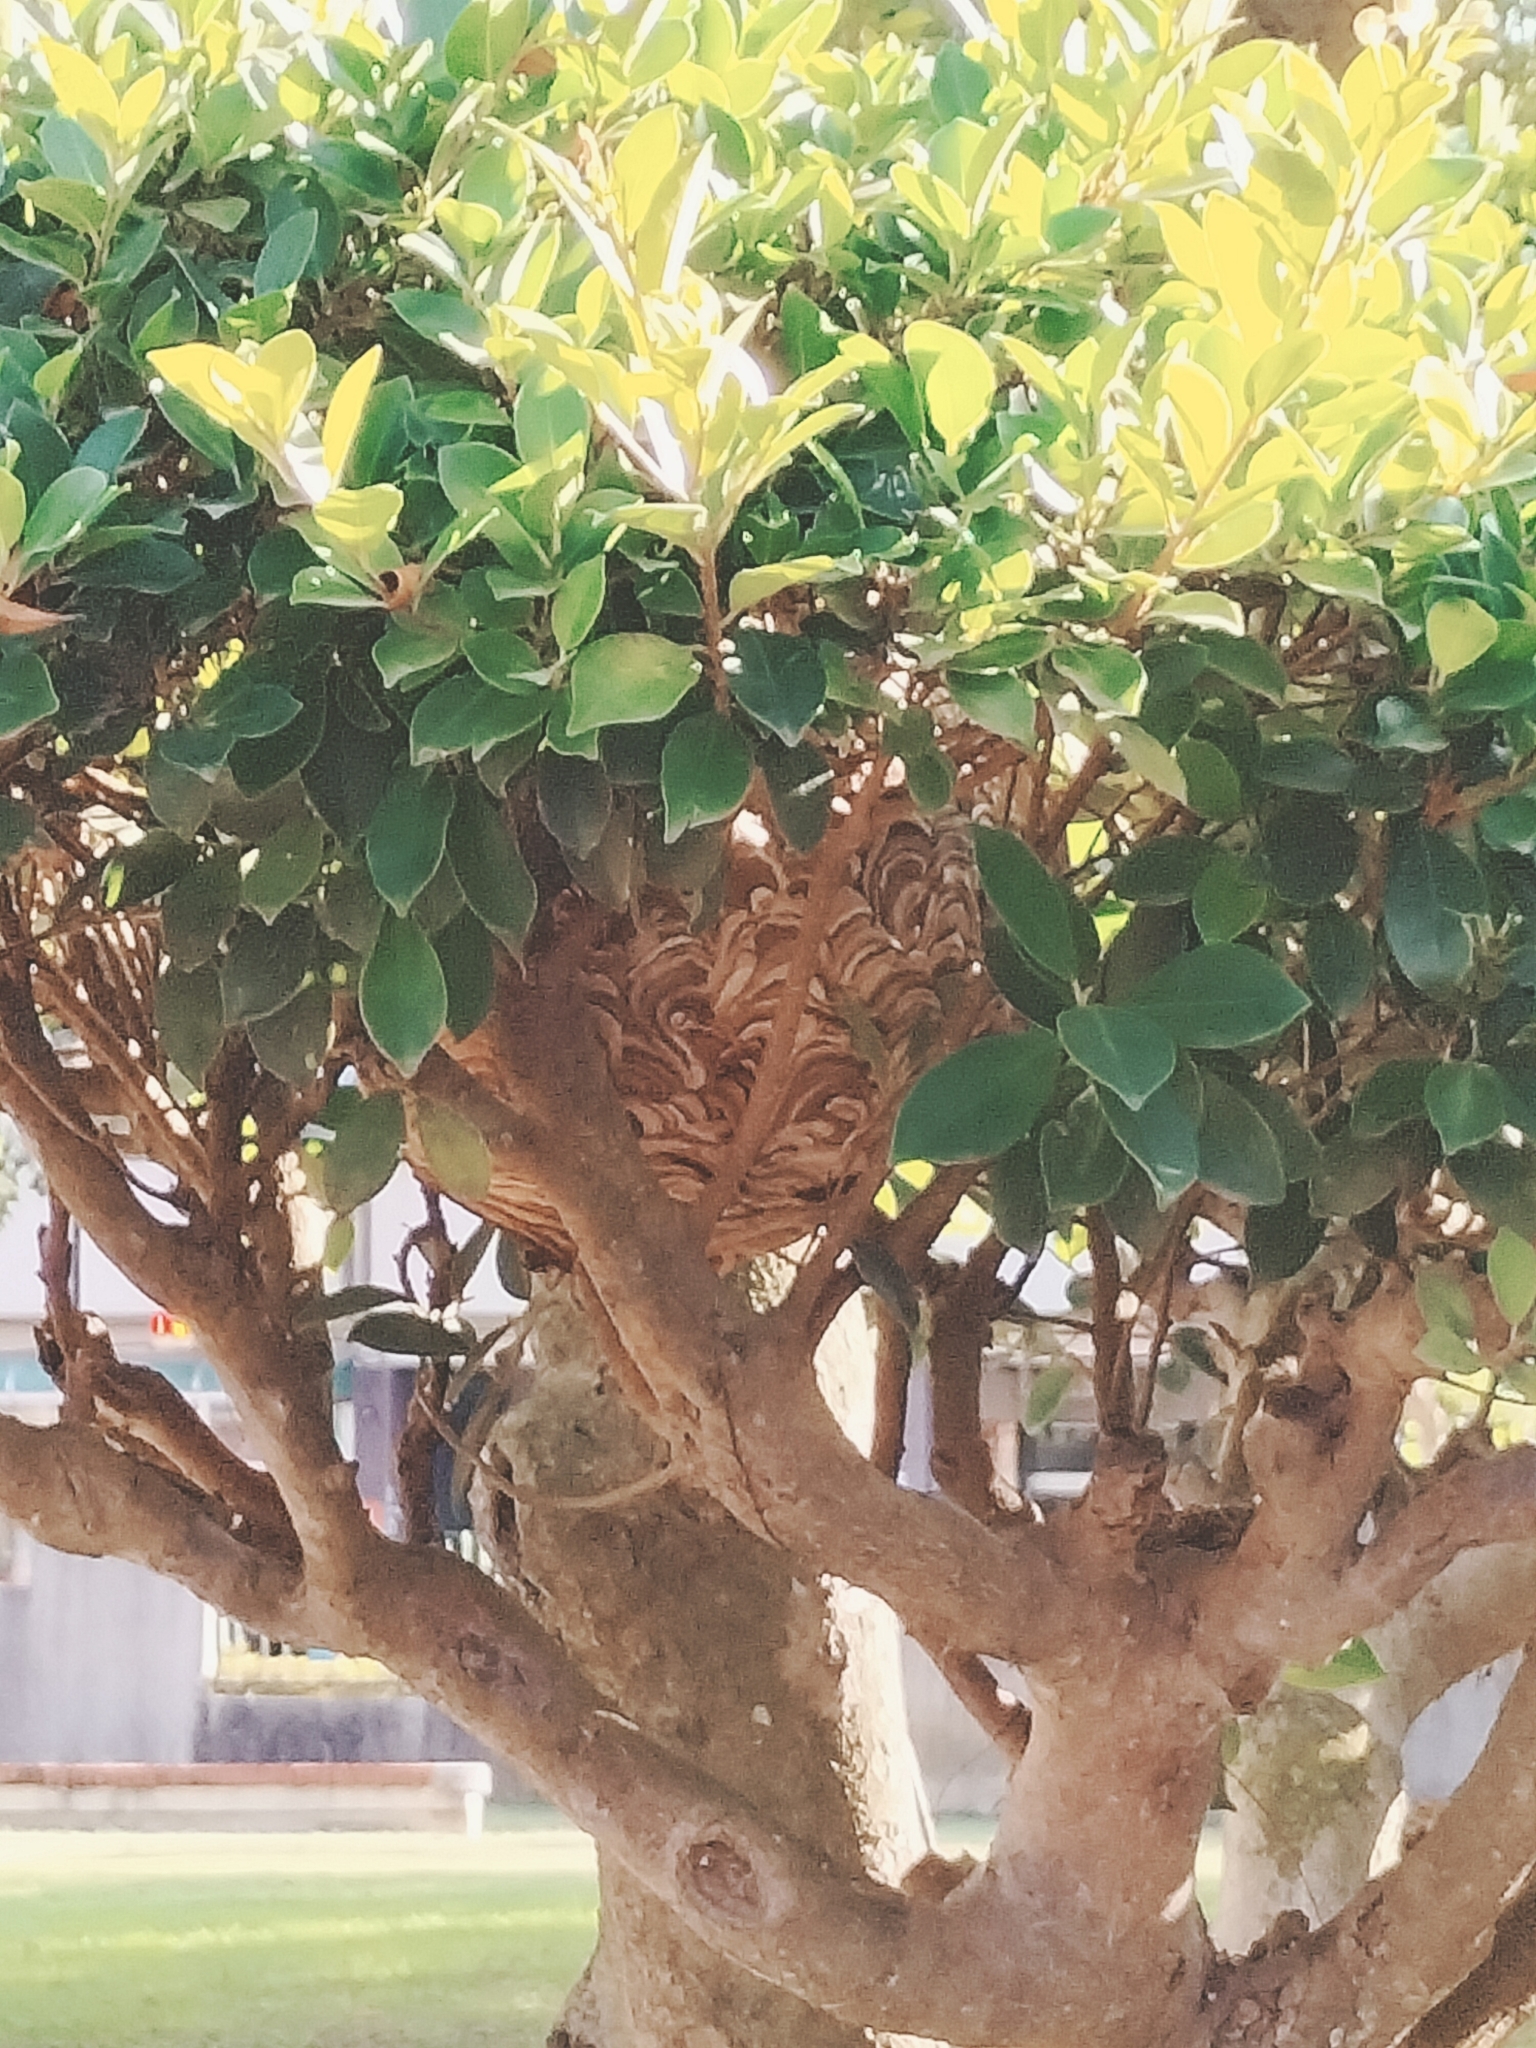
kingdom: Animalia
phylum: Arthropoda
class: Insecta
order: Hymenoptera
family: Vespidae
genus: Vespa
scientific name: Vespa affinis
